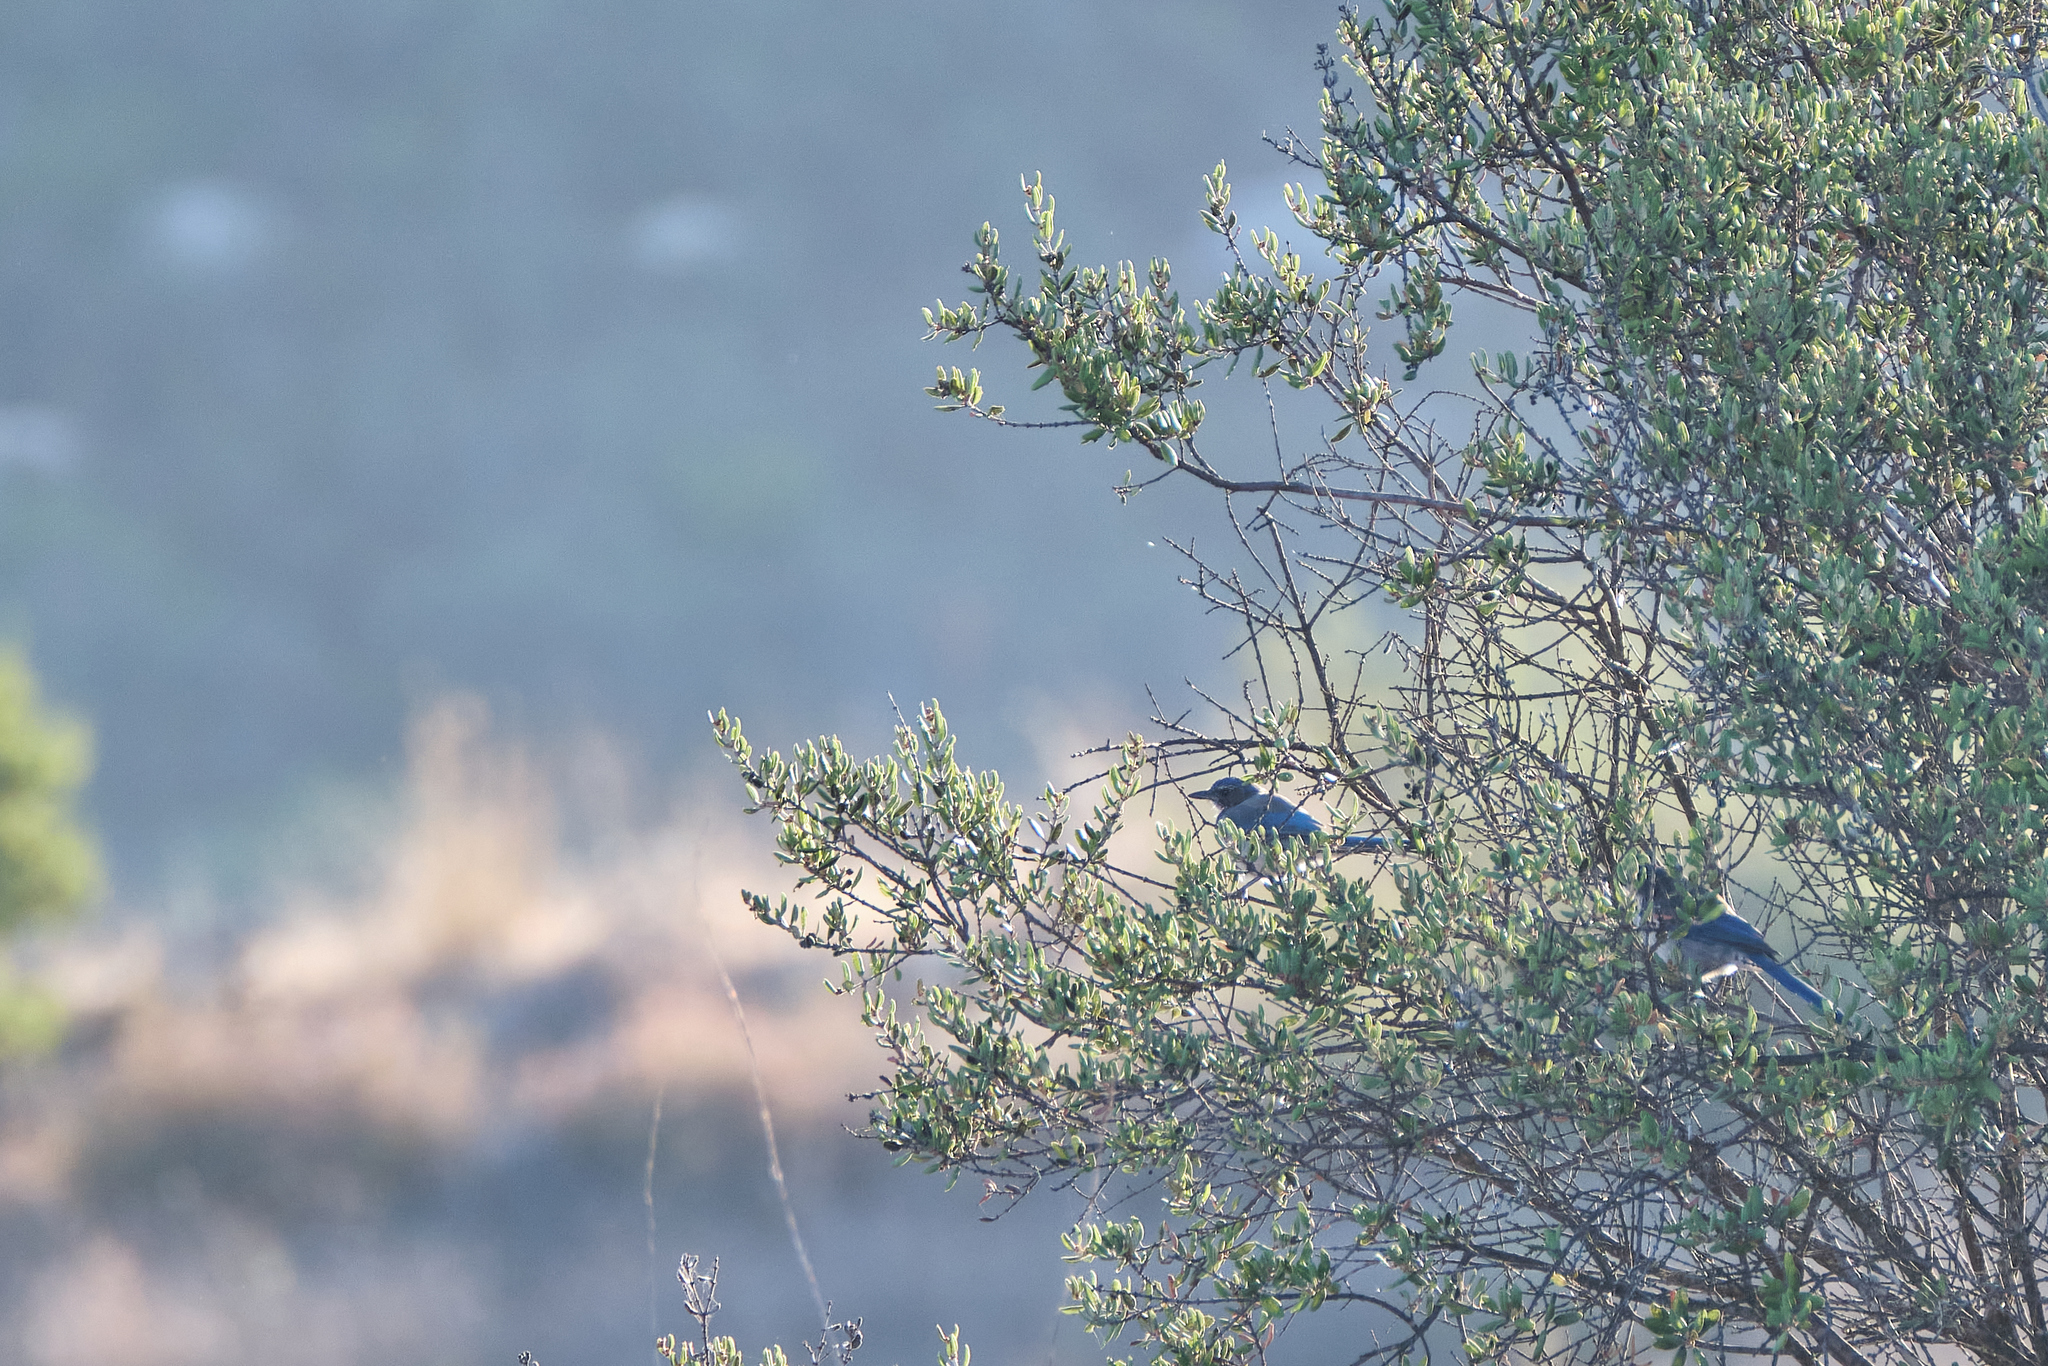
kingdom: Animalia
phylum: Chordata
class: Aves
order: Passeriformes
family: Corvidae
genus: Aphelocoma
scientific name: Aphelocoma californica
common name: California scrub-jay
